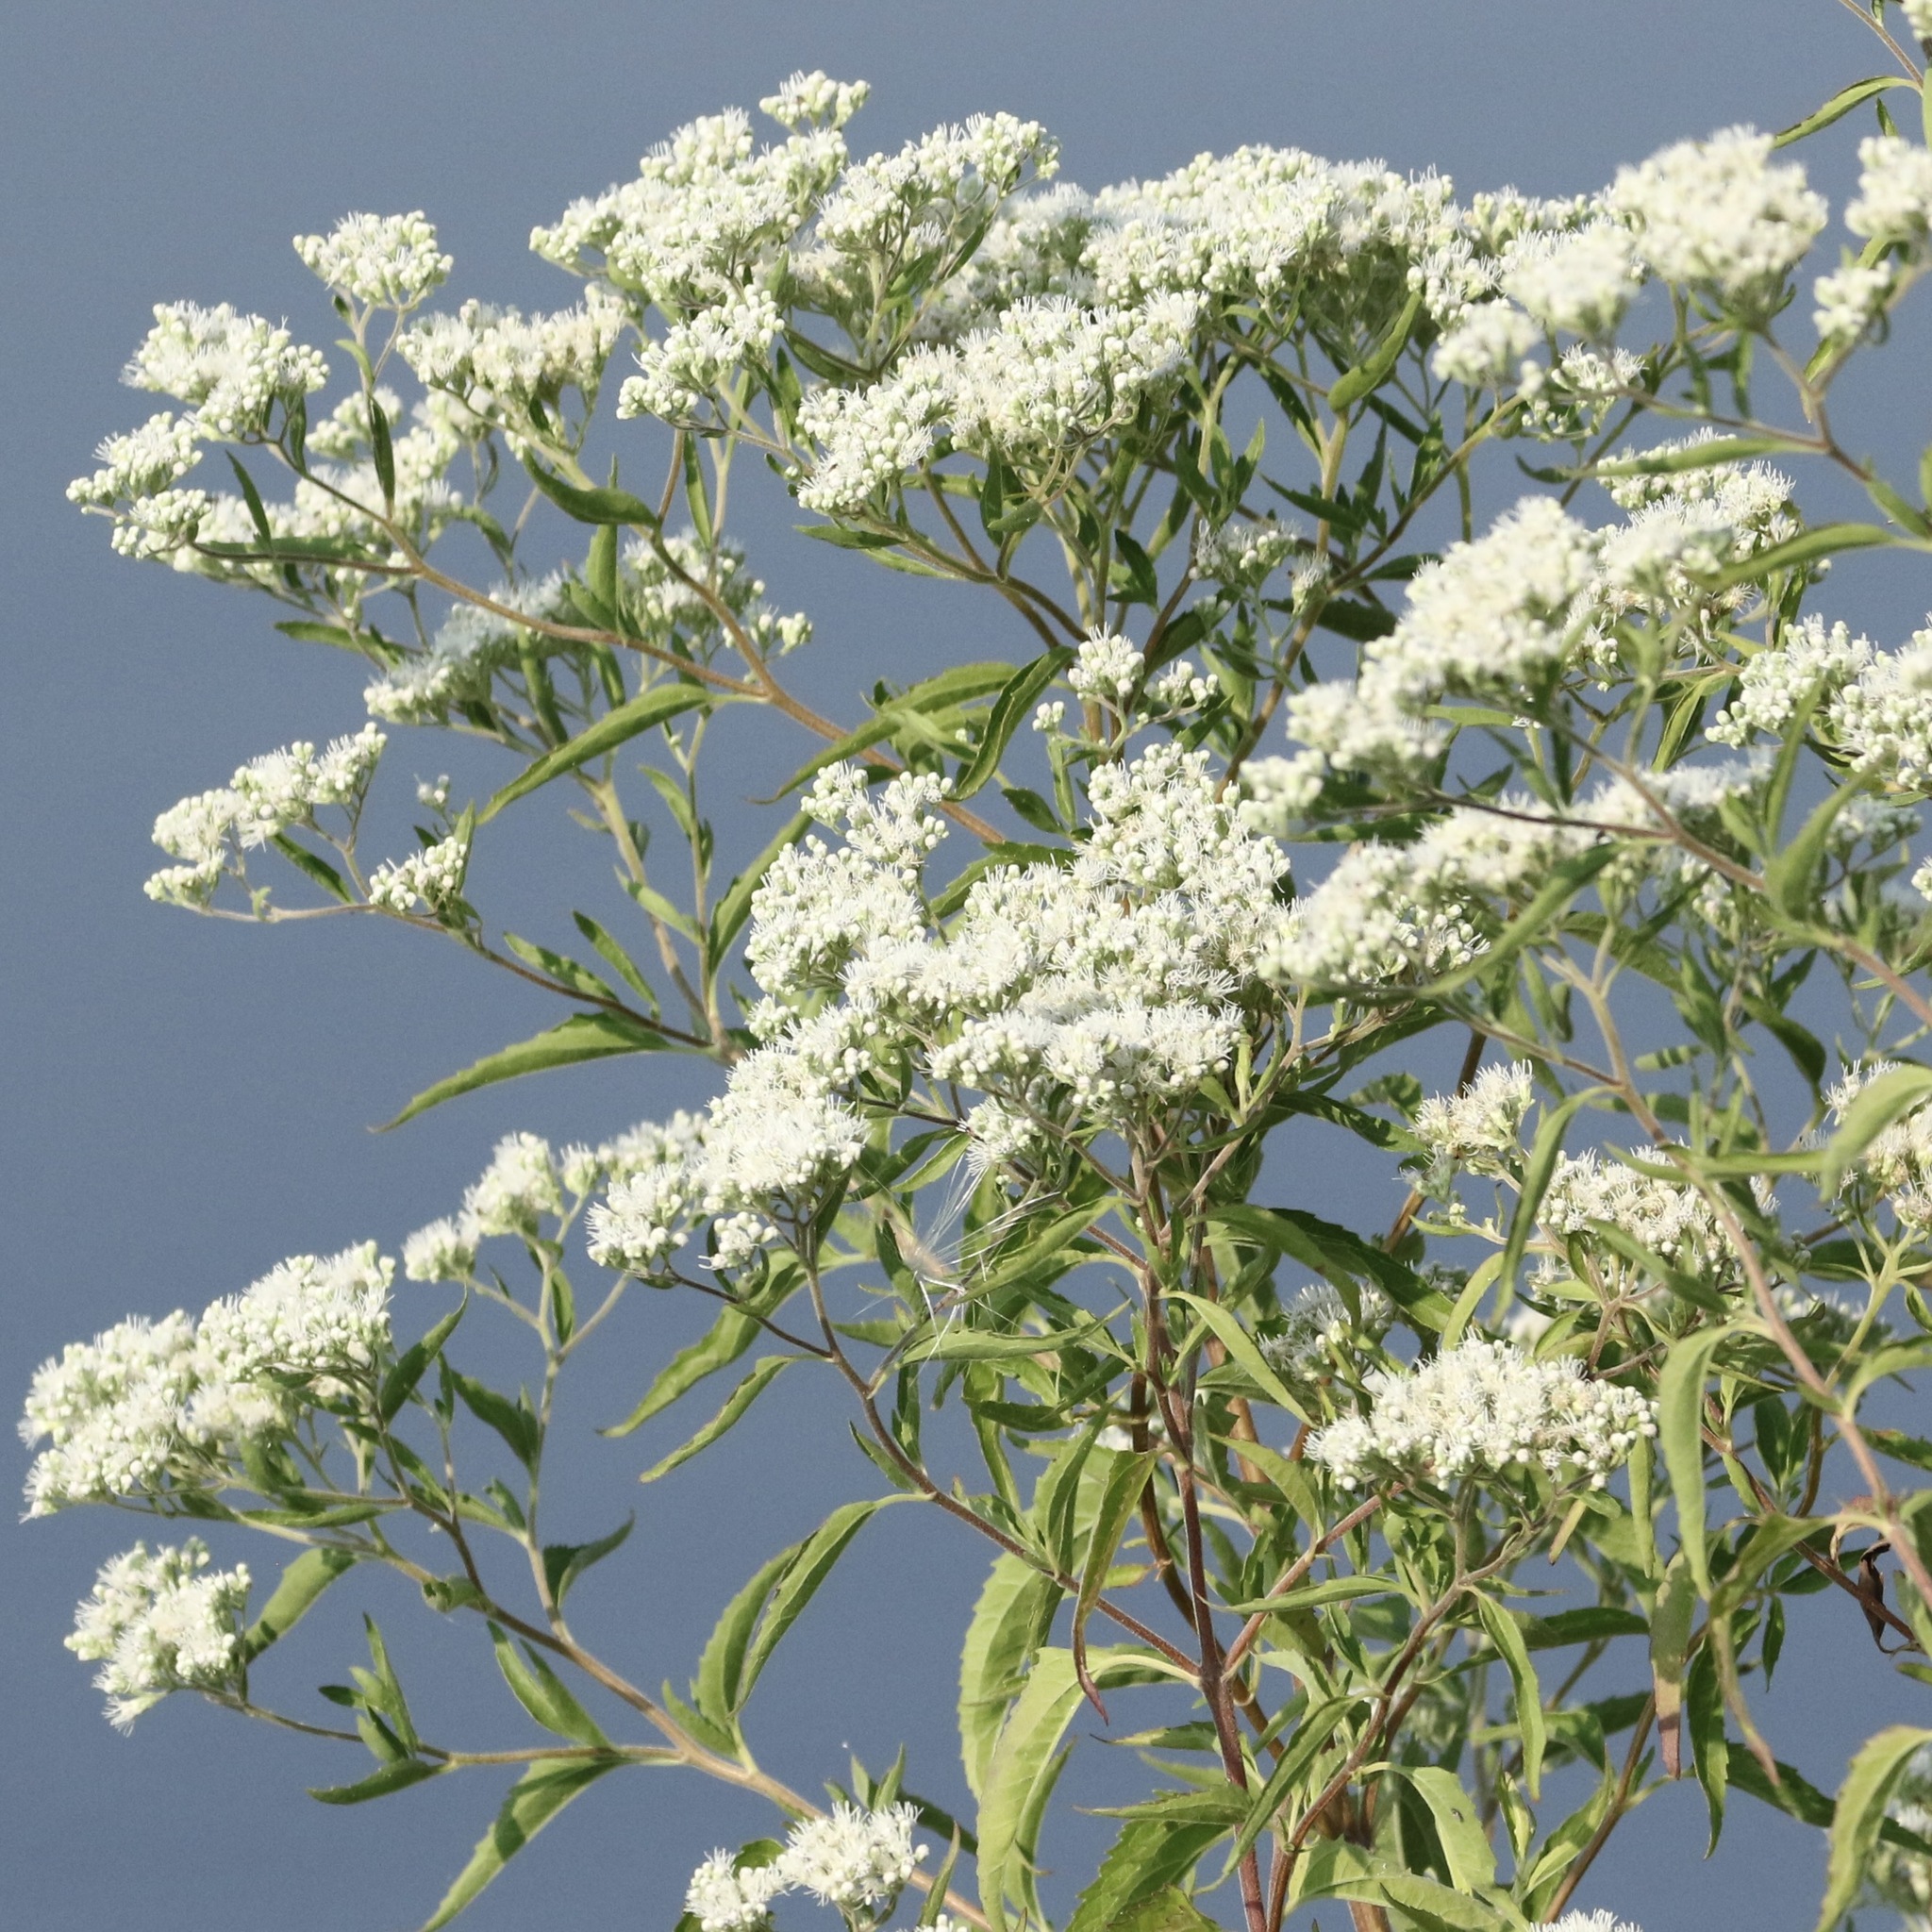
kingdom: Plantae
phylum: Tracheophyta
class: Magnoliopsida
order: Asterales
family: Asteraceae
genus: Eupatorium
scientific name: Eupatorium serotinum
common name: Late boneset
